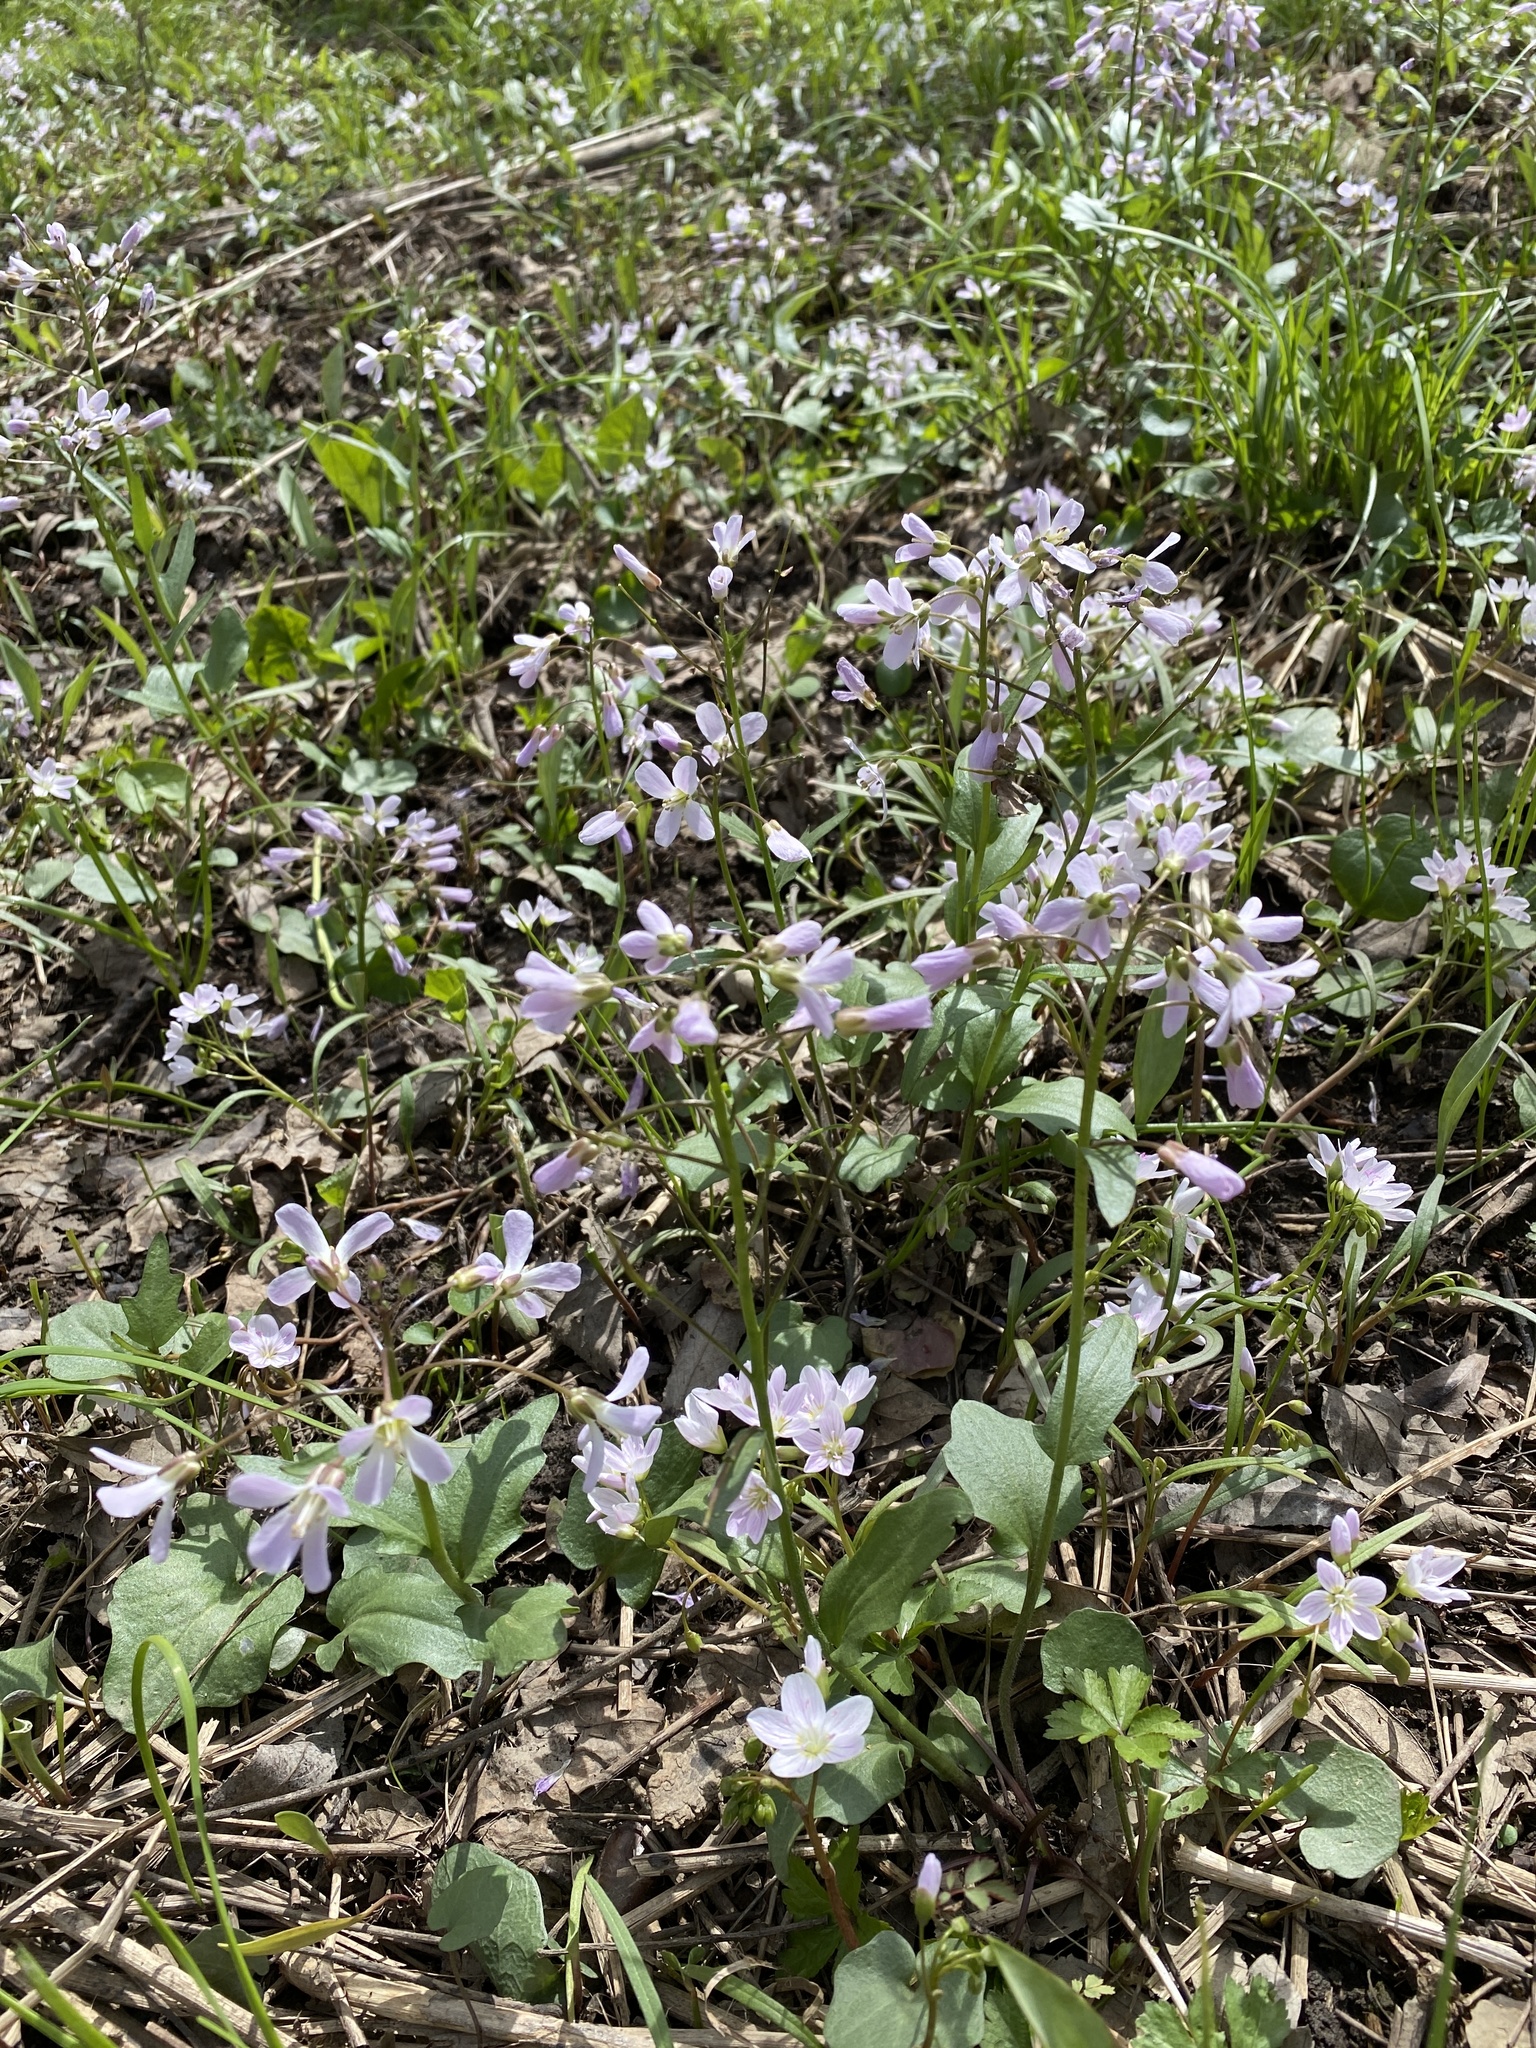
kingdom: Plantae
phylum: Tracheophyta
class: Magnoliopsida
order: Brassicales
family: Brassicaceae
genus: Cardamine
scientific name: Cardamine douglassii
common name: Purple cress
